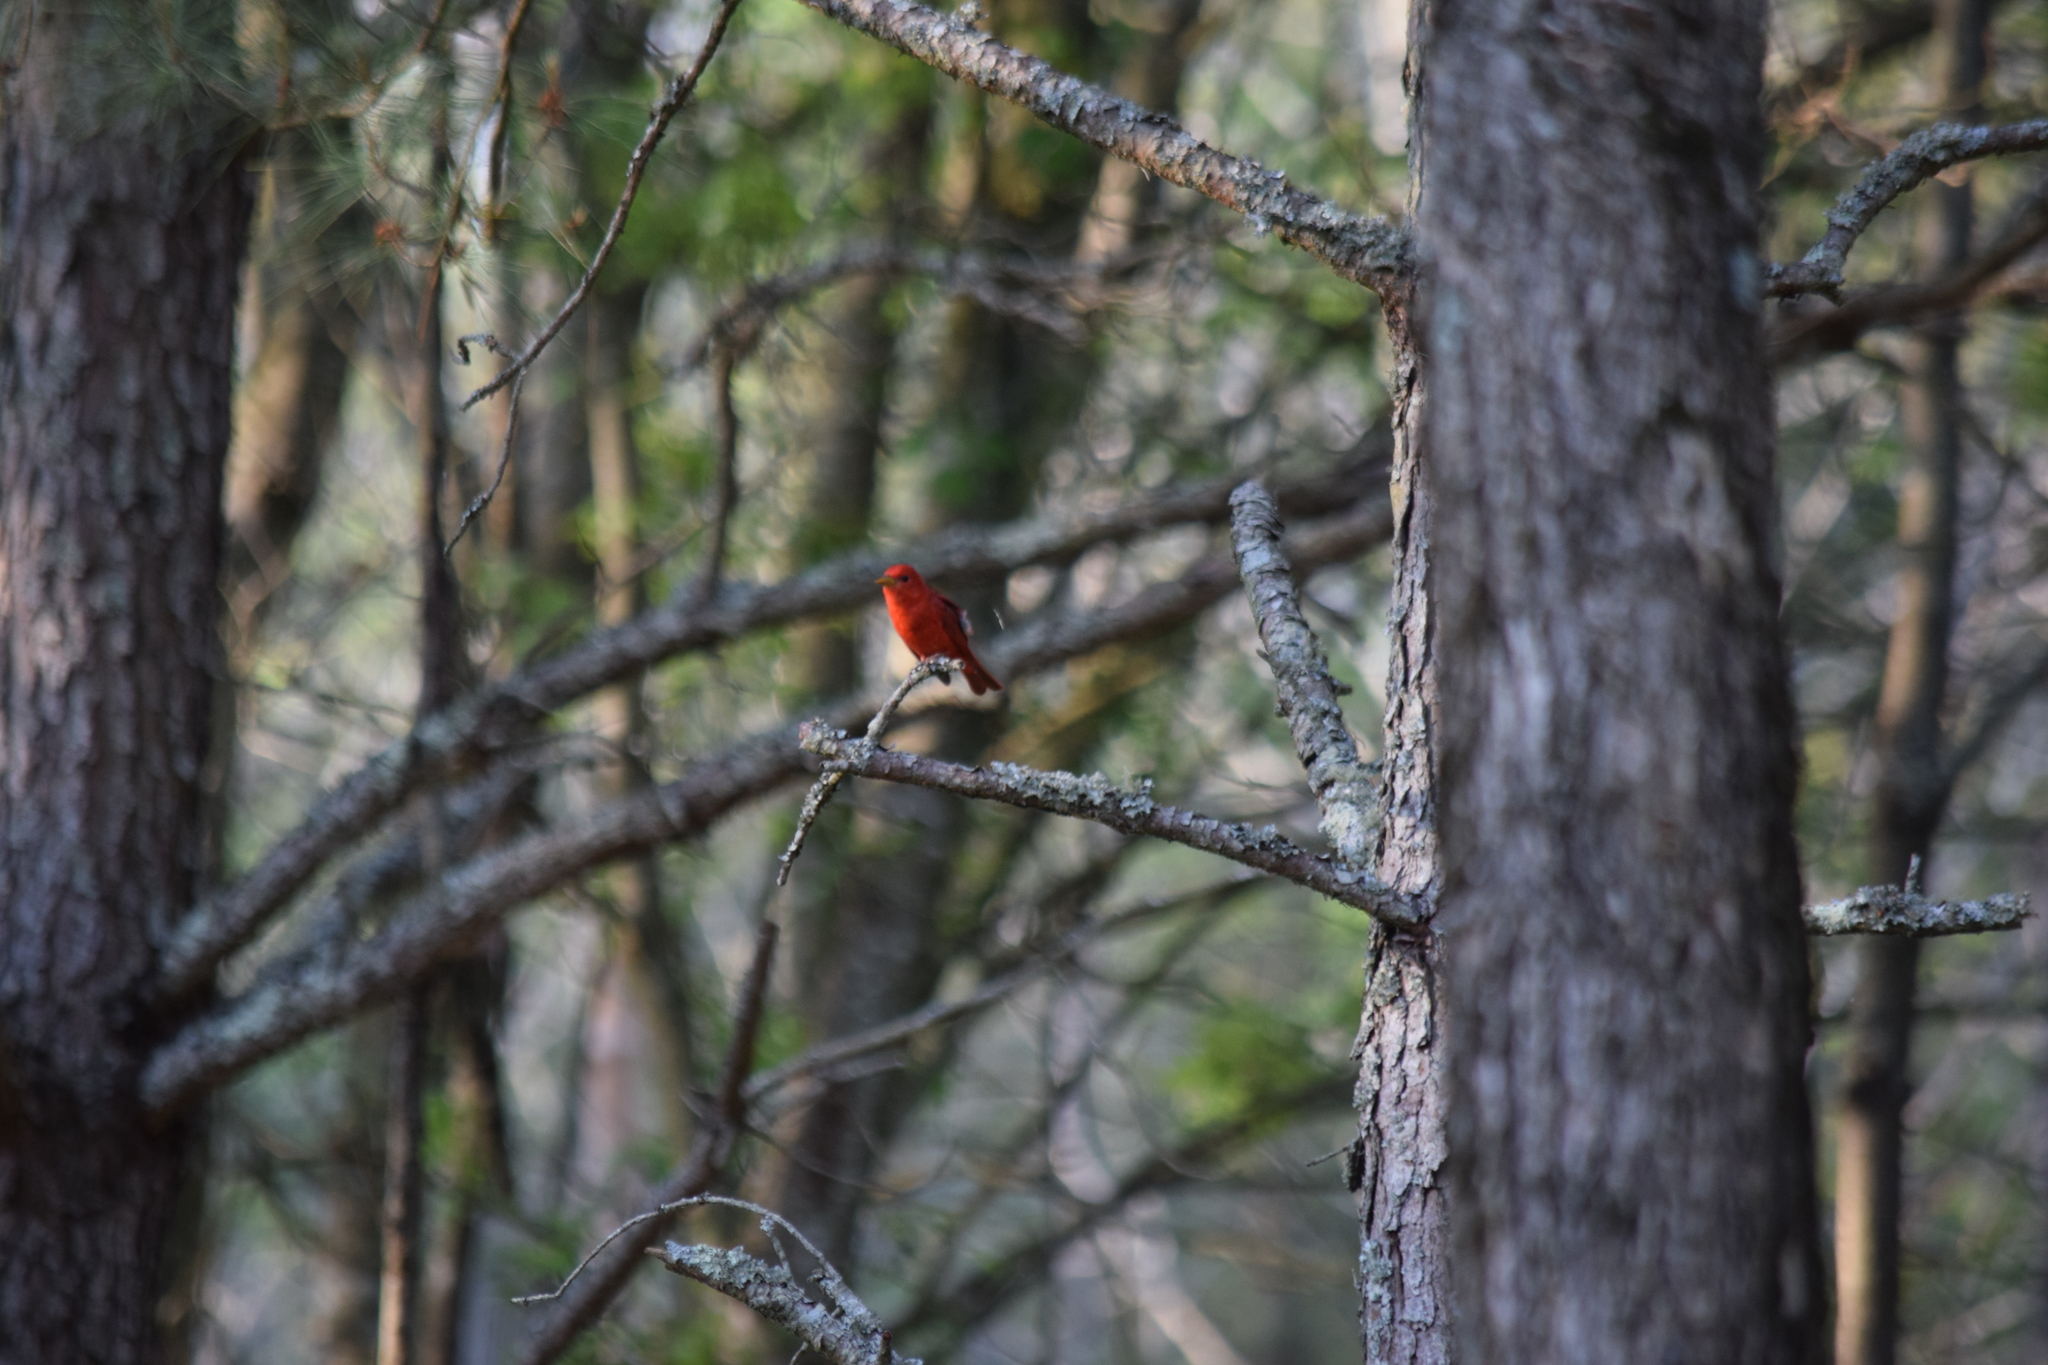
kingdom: Animalia
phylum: Chordata
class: Aves
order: Passeriformes
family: Cardinalidae
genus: Piranga
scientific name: Piranga rubra
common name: Summer tanager
